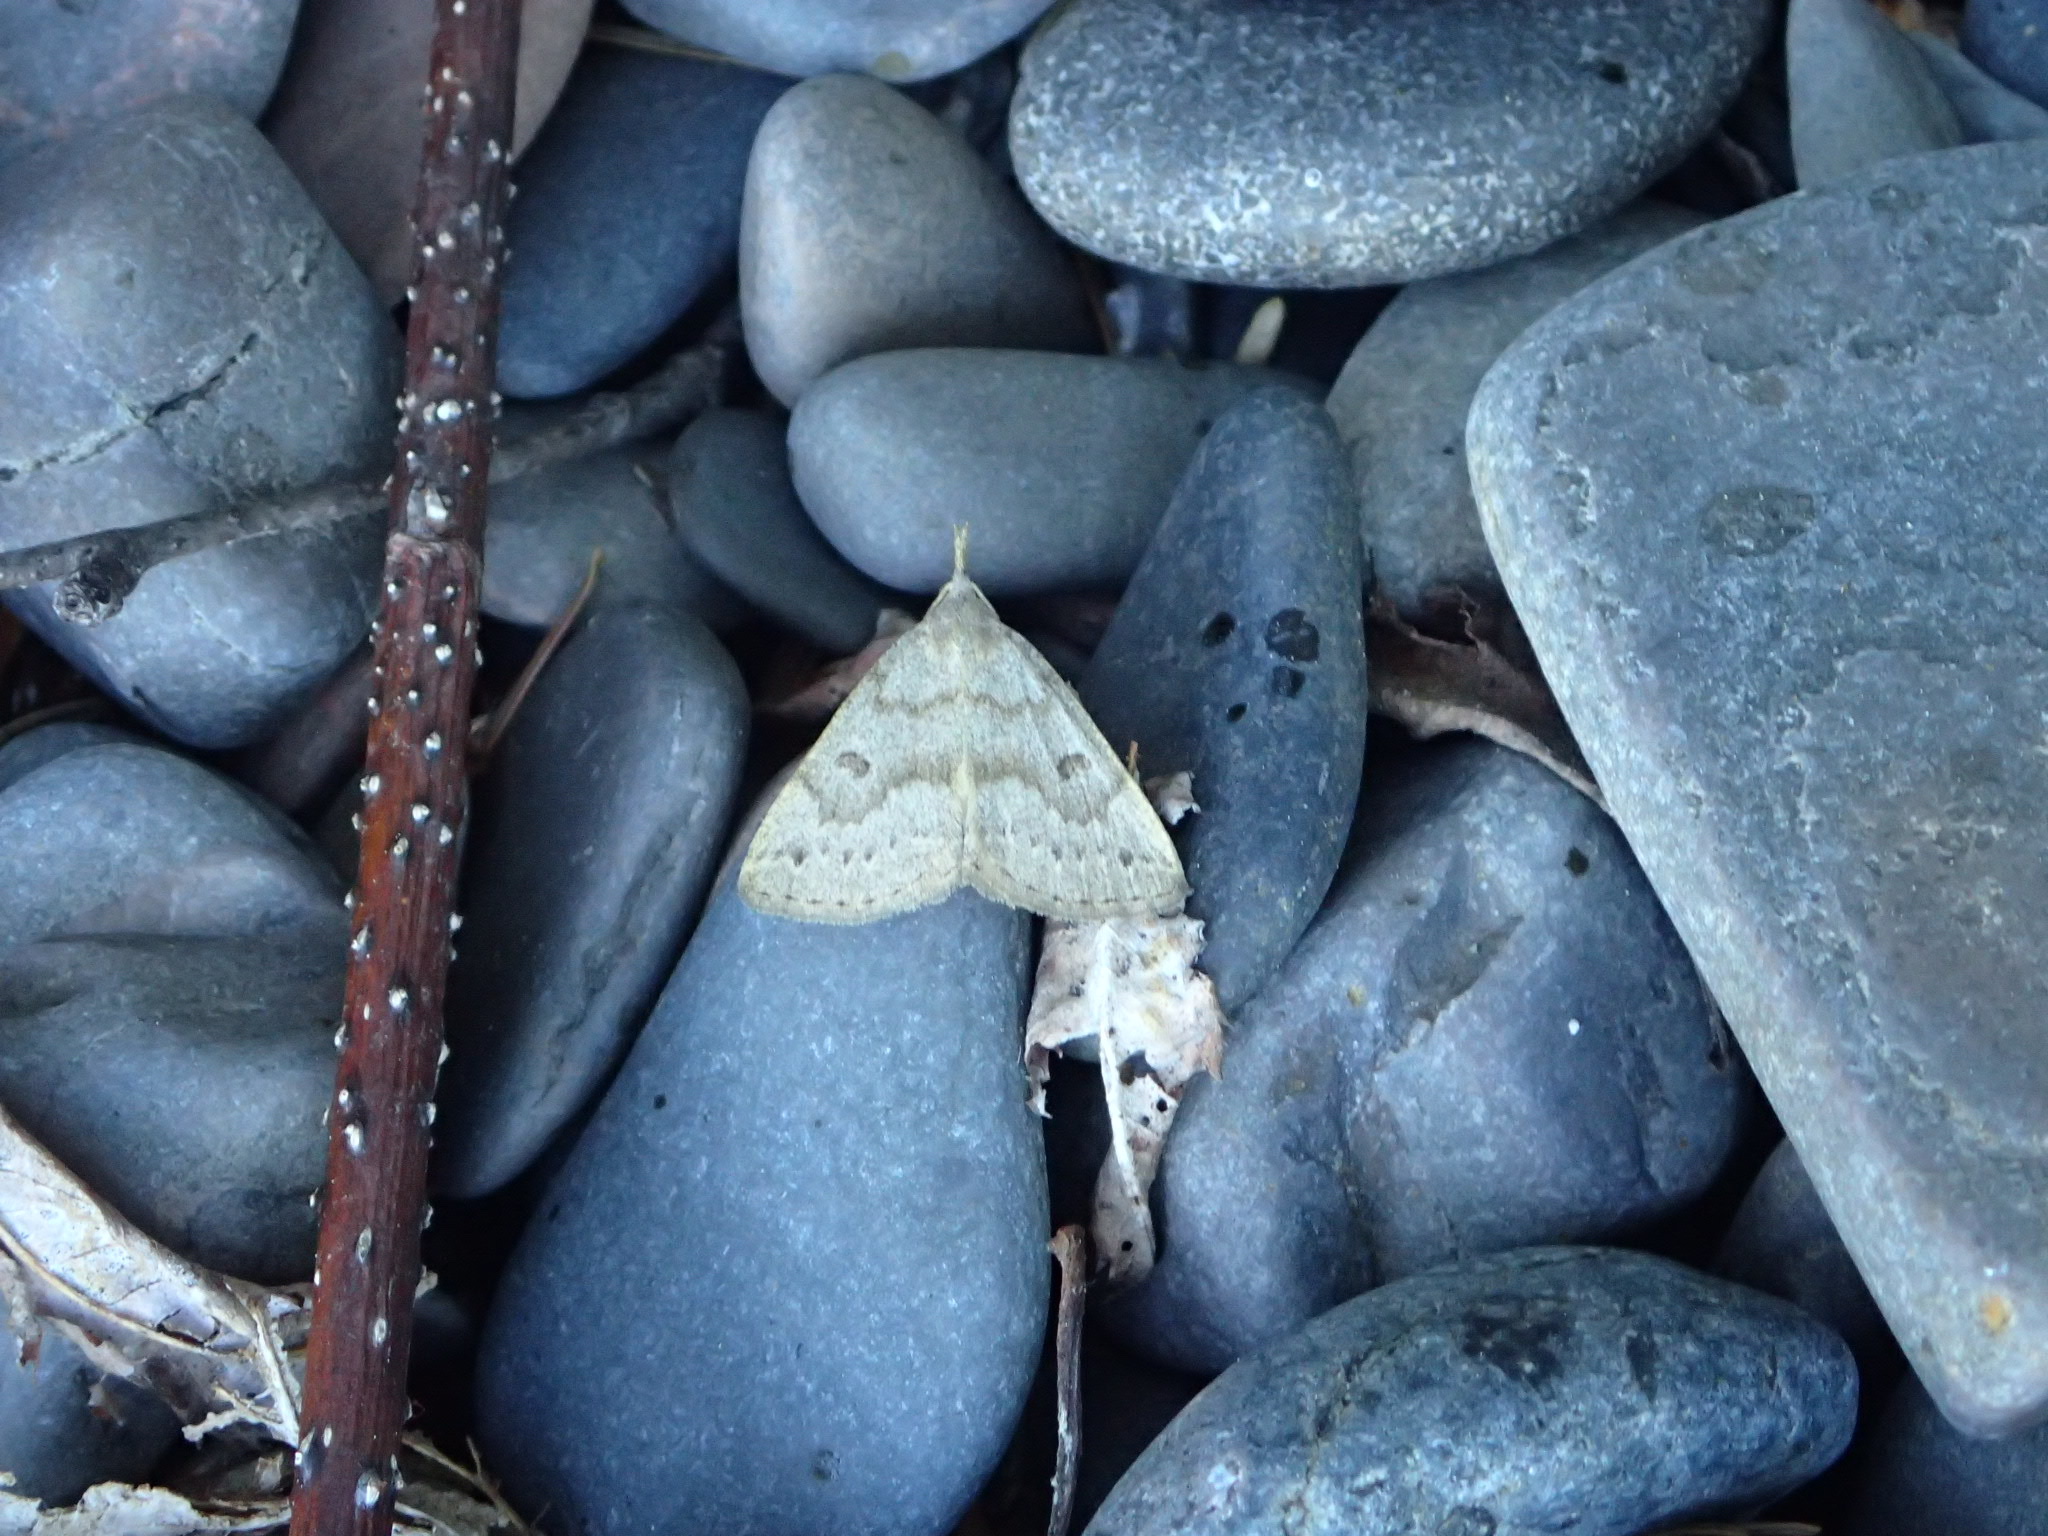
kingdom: Animalia
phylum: Arthropoda
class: Insecta
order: Lepidoptera
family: Erebidae
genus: Macrochilo
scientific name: Macrochilo morbidalis
